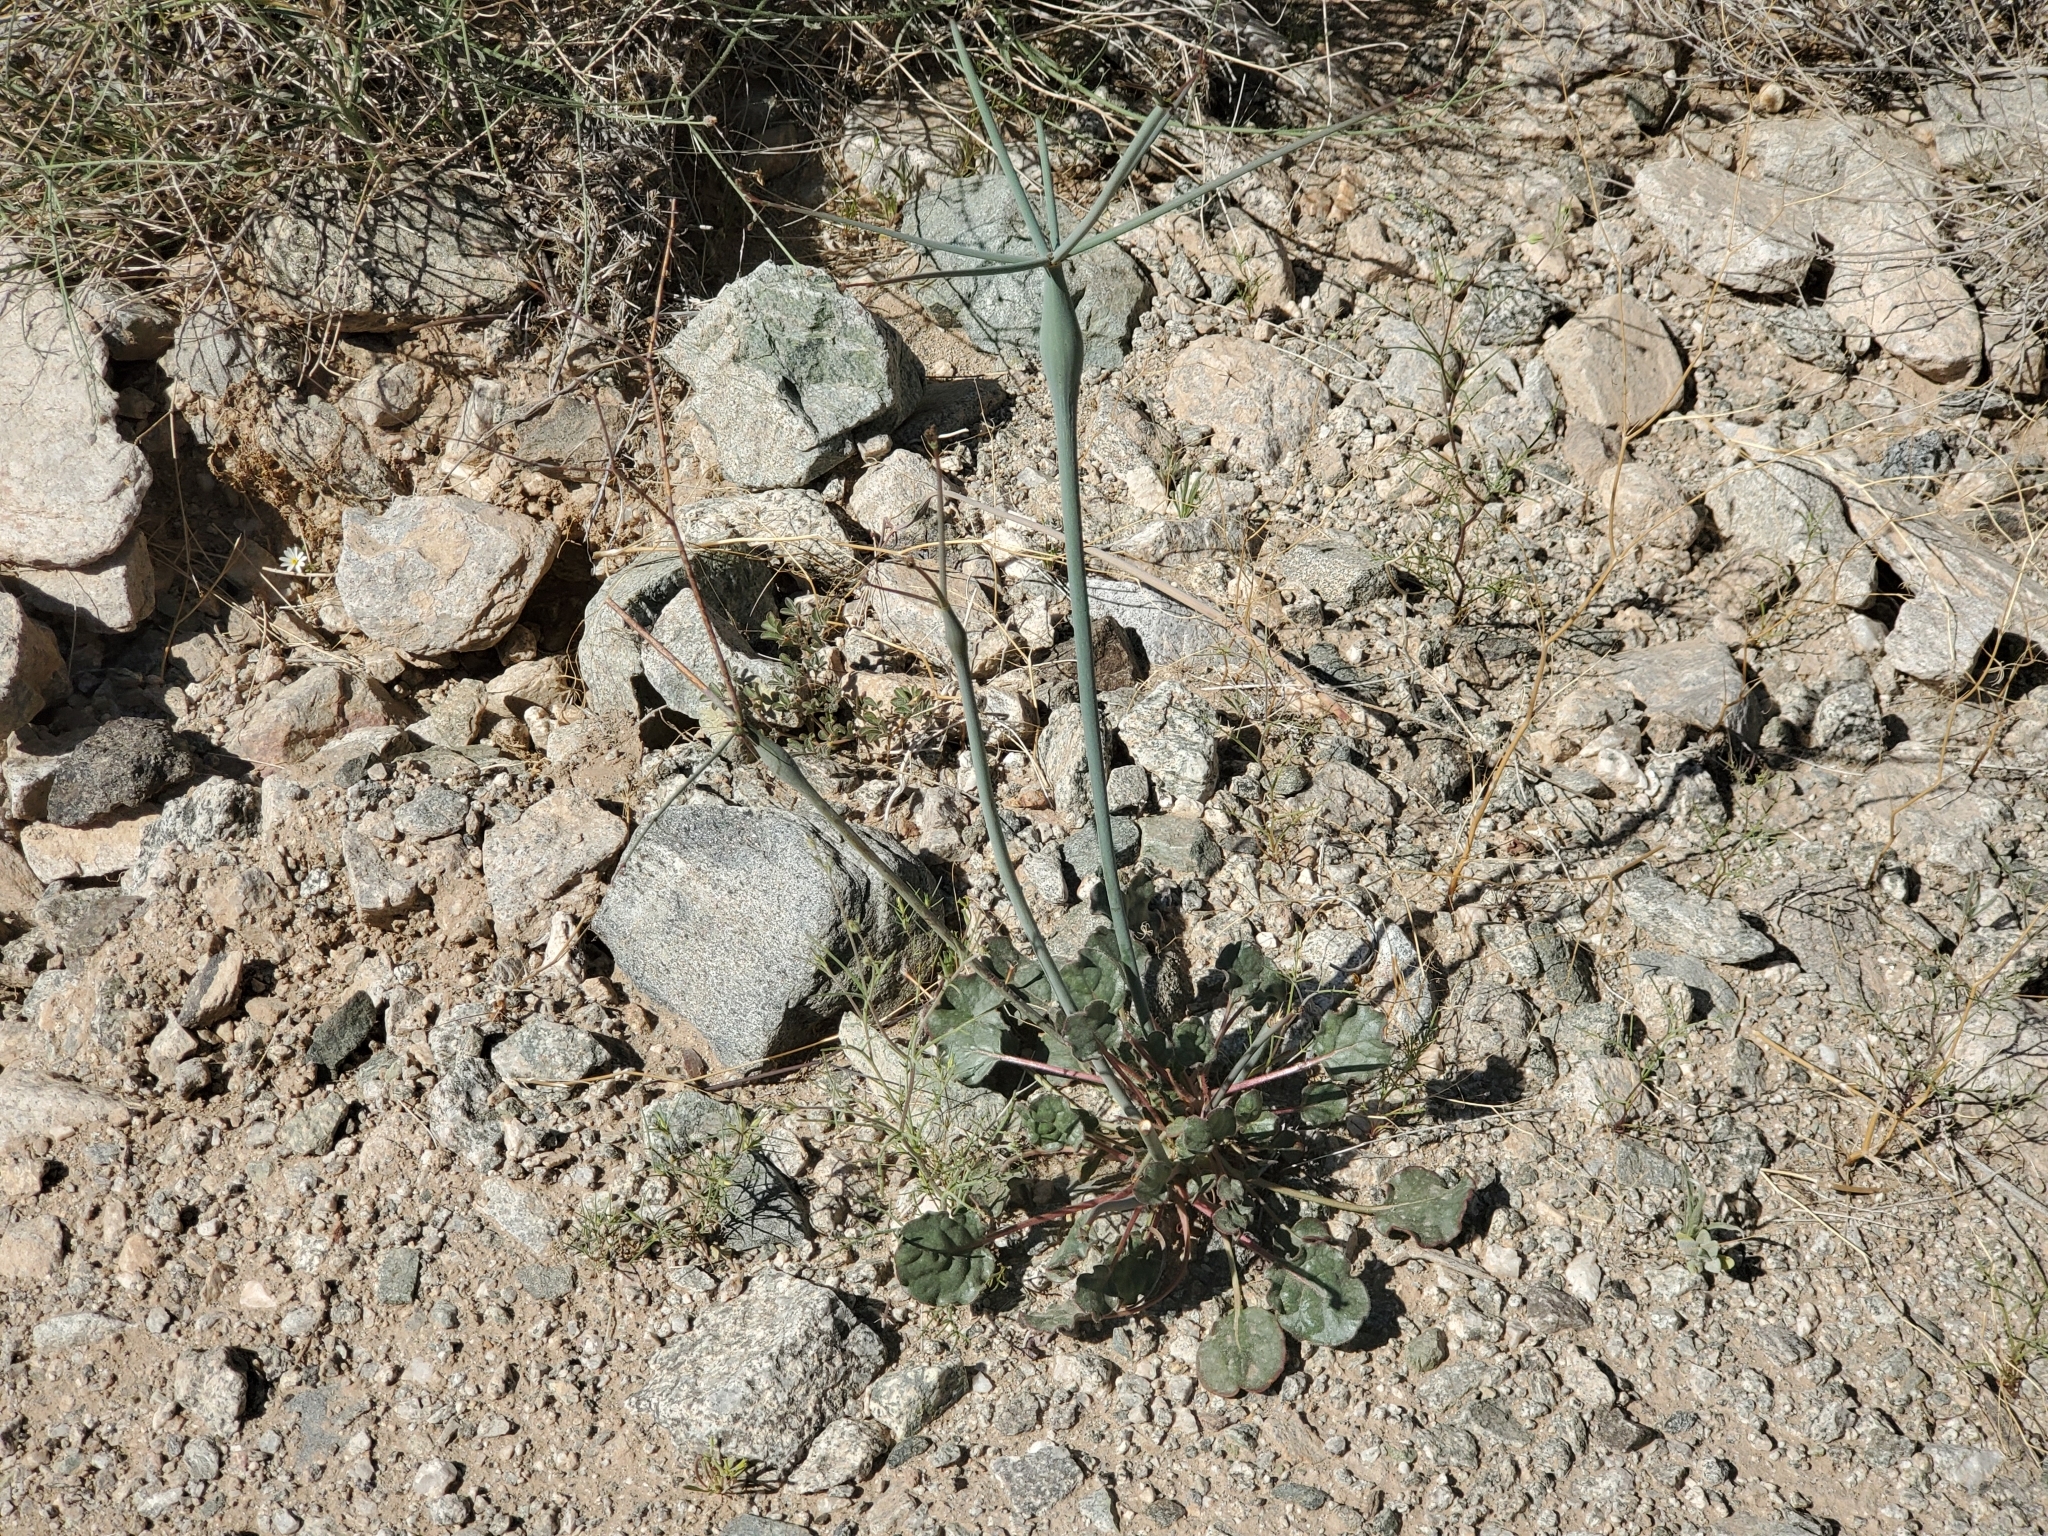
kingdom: Plantae
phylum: Tracheophyta
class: Magnoliopsida
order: Caryophyllales
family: Polygonaceae
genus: Eriogonum
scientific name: Eriogonum inflatum
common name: Desert trumpet
